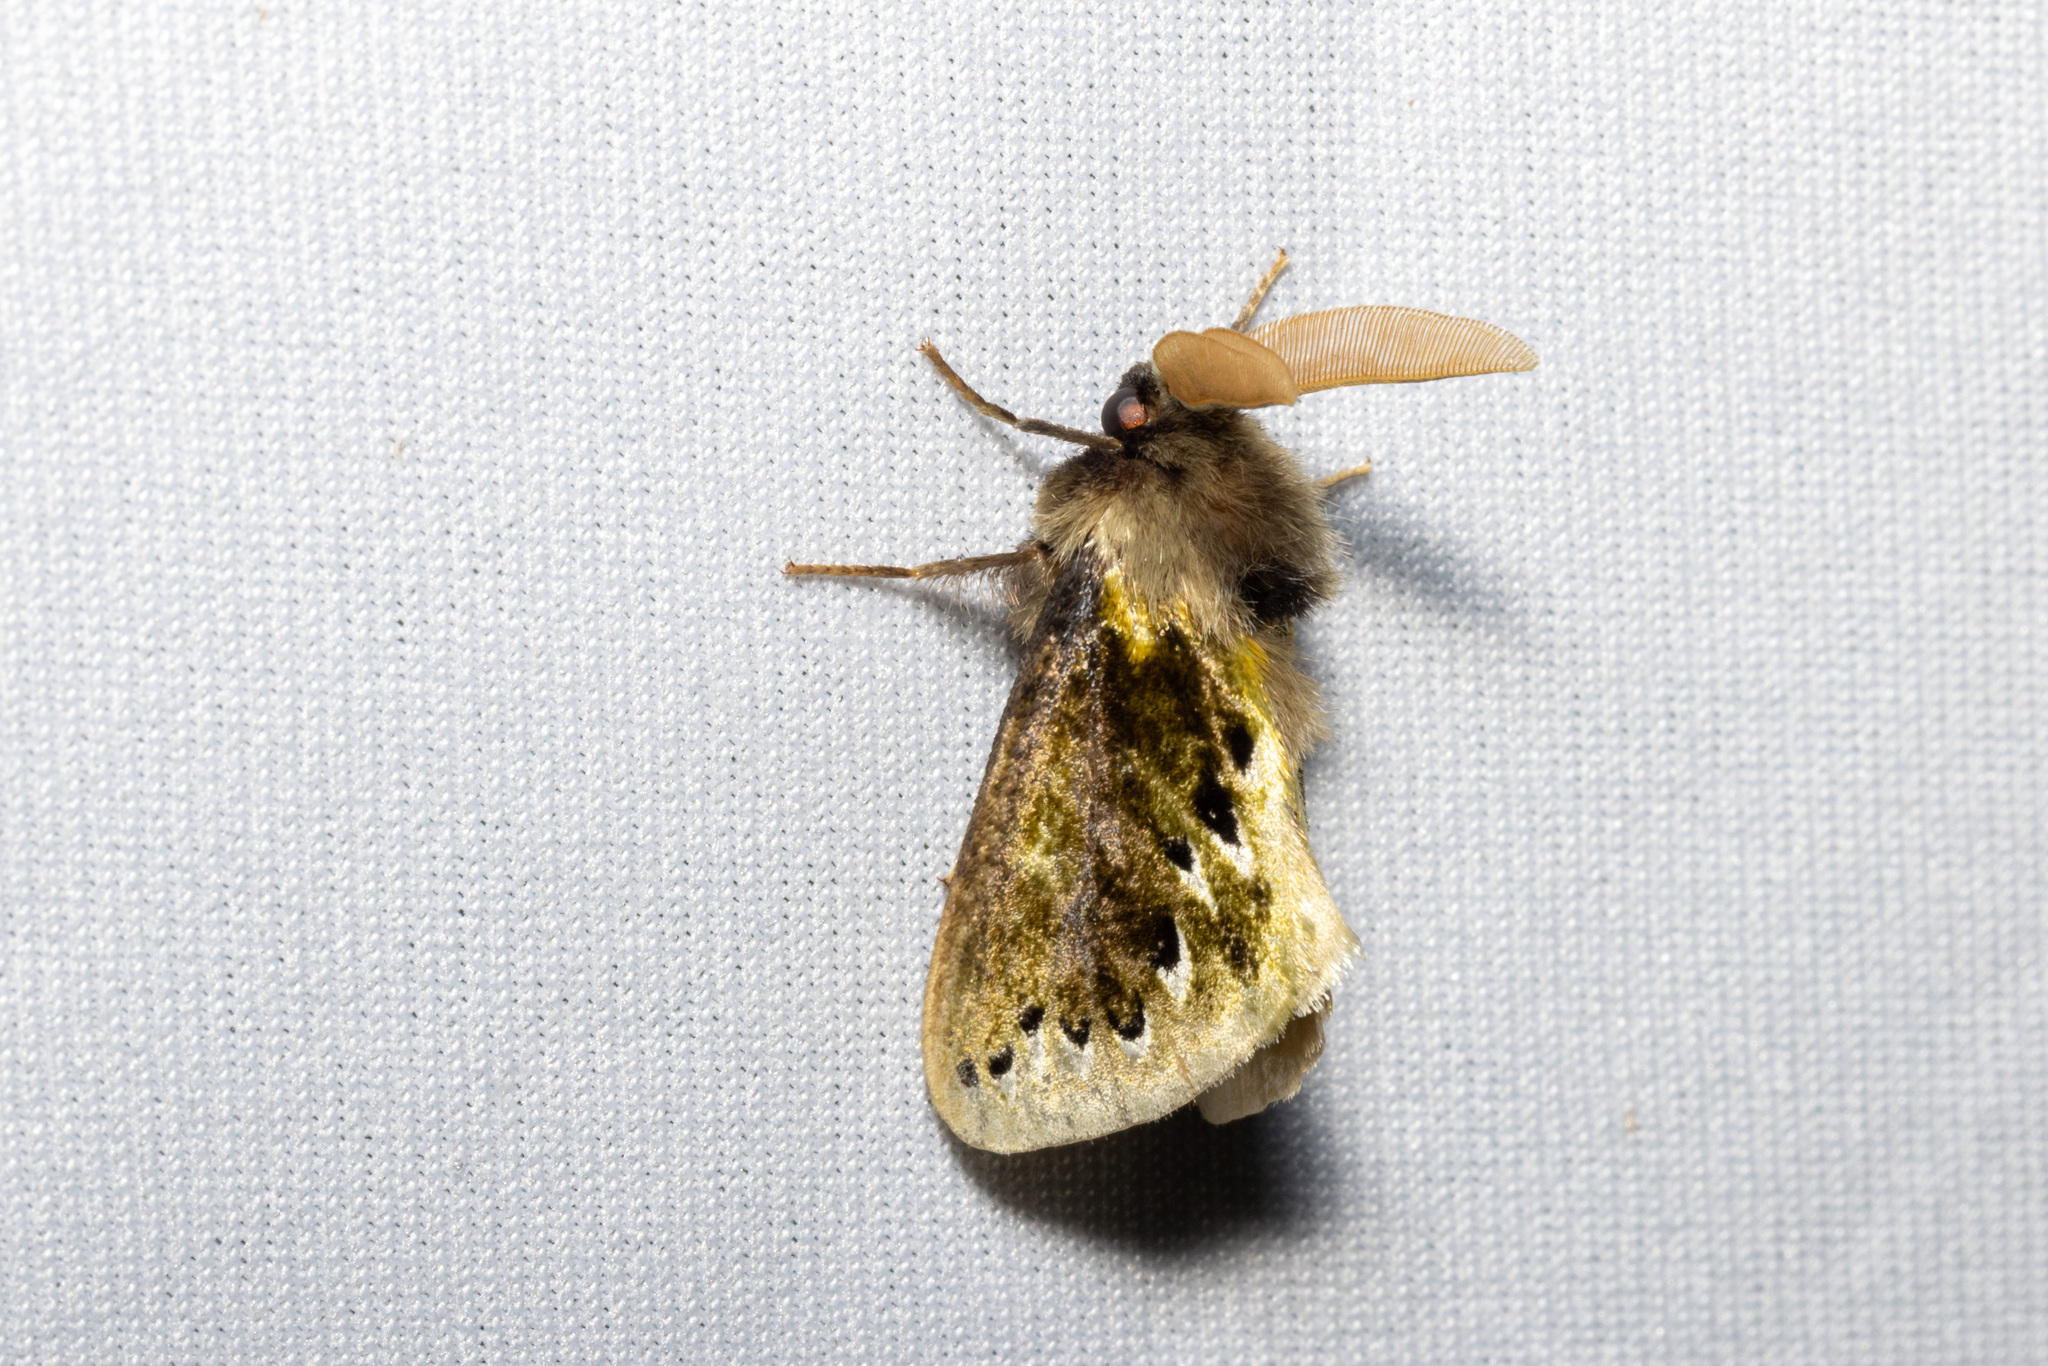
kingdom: Animalia
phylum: Arthropoda
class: Insecta
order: Lepidoptera
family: Megalopygidae
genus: Macara
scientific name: Macara alydda
